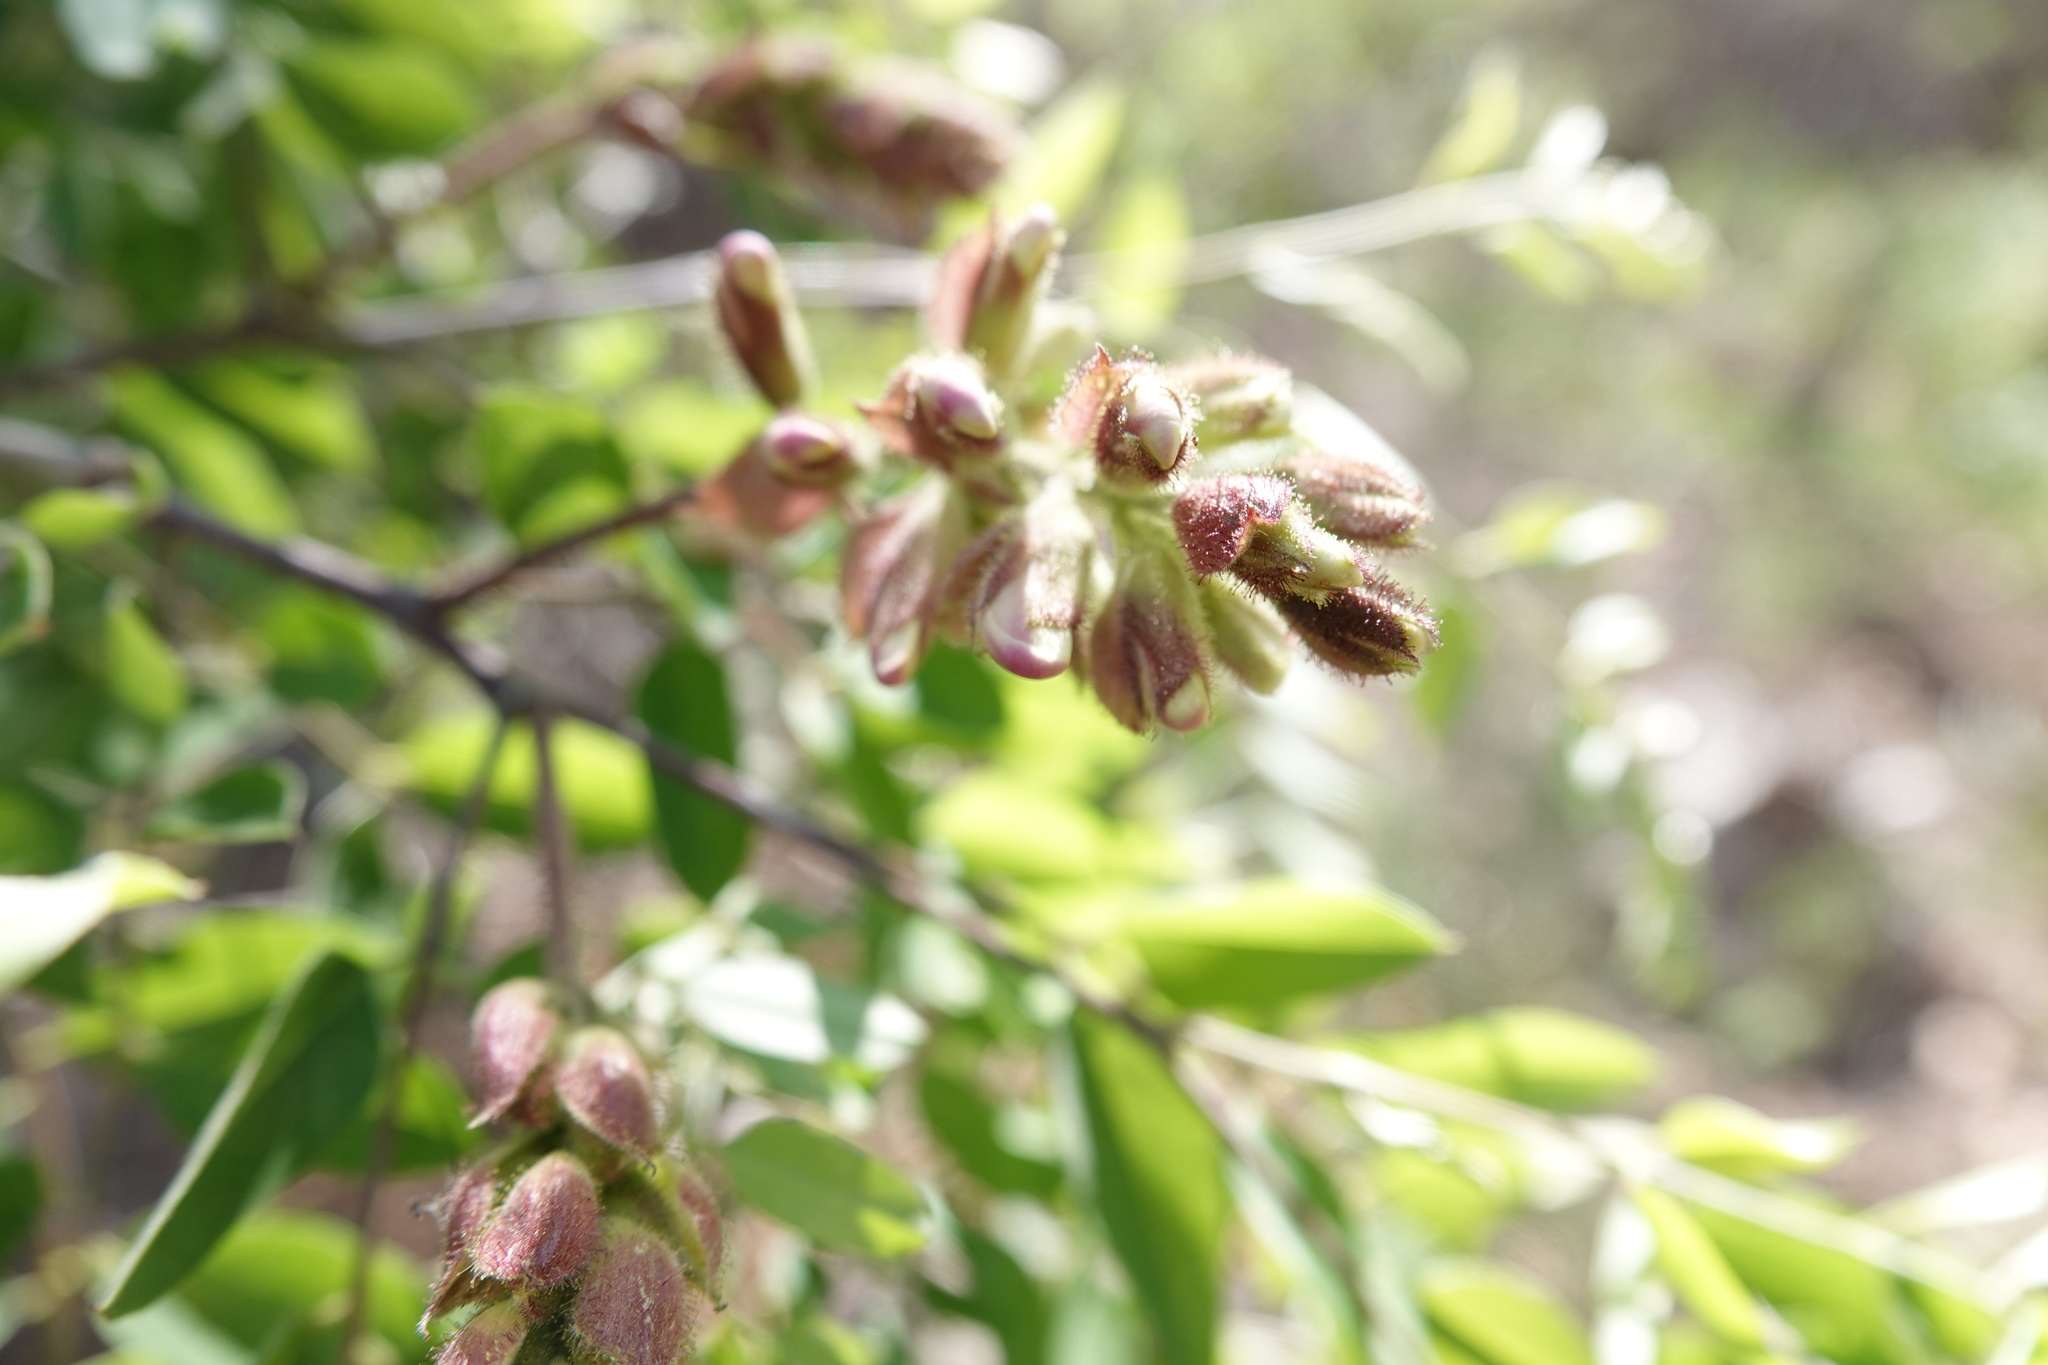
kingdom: Plantae
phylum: Tracheophyta
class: Magnoliopsida
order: Fabales
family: Fabaceae
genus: Robinia
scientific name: Robinia neomexicana
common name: New mexico locust
